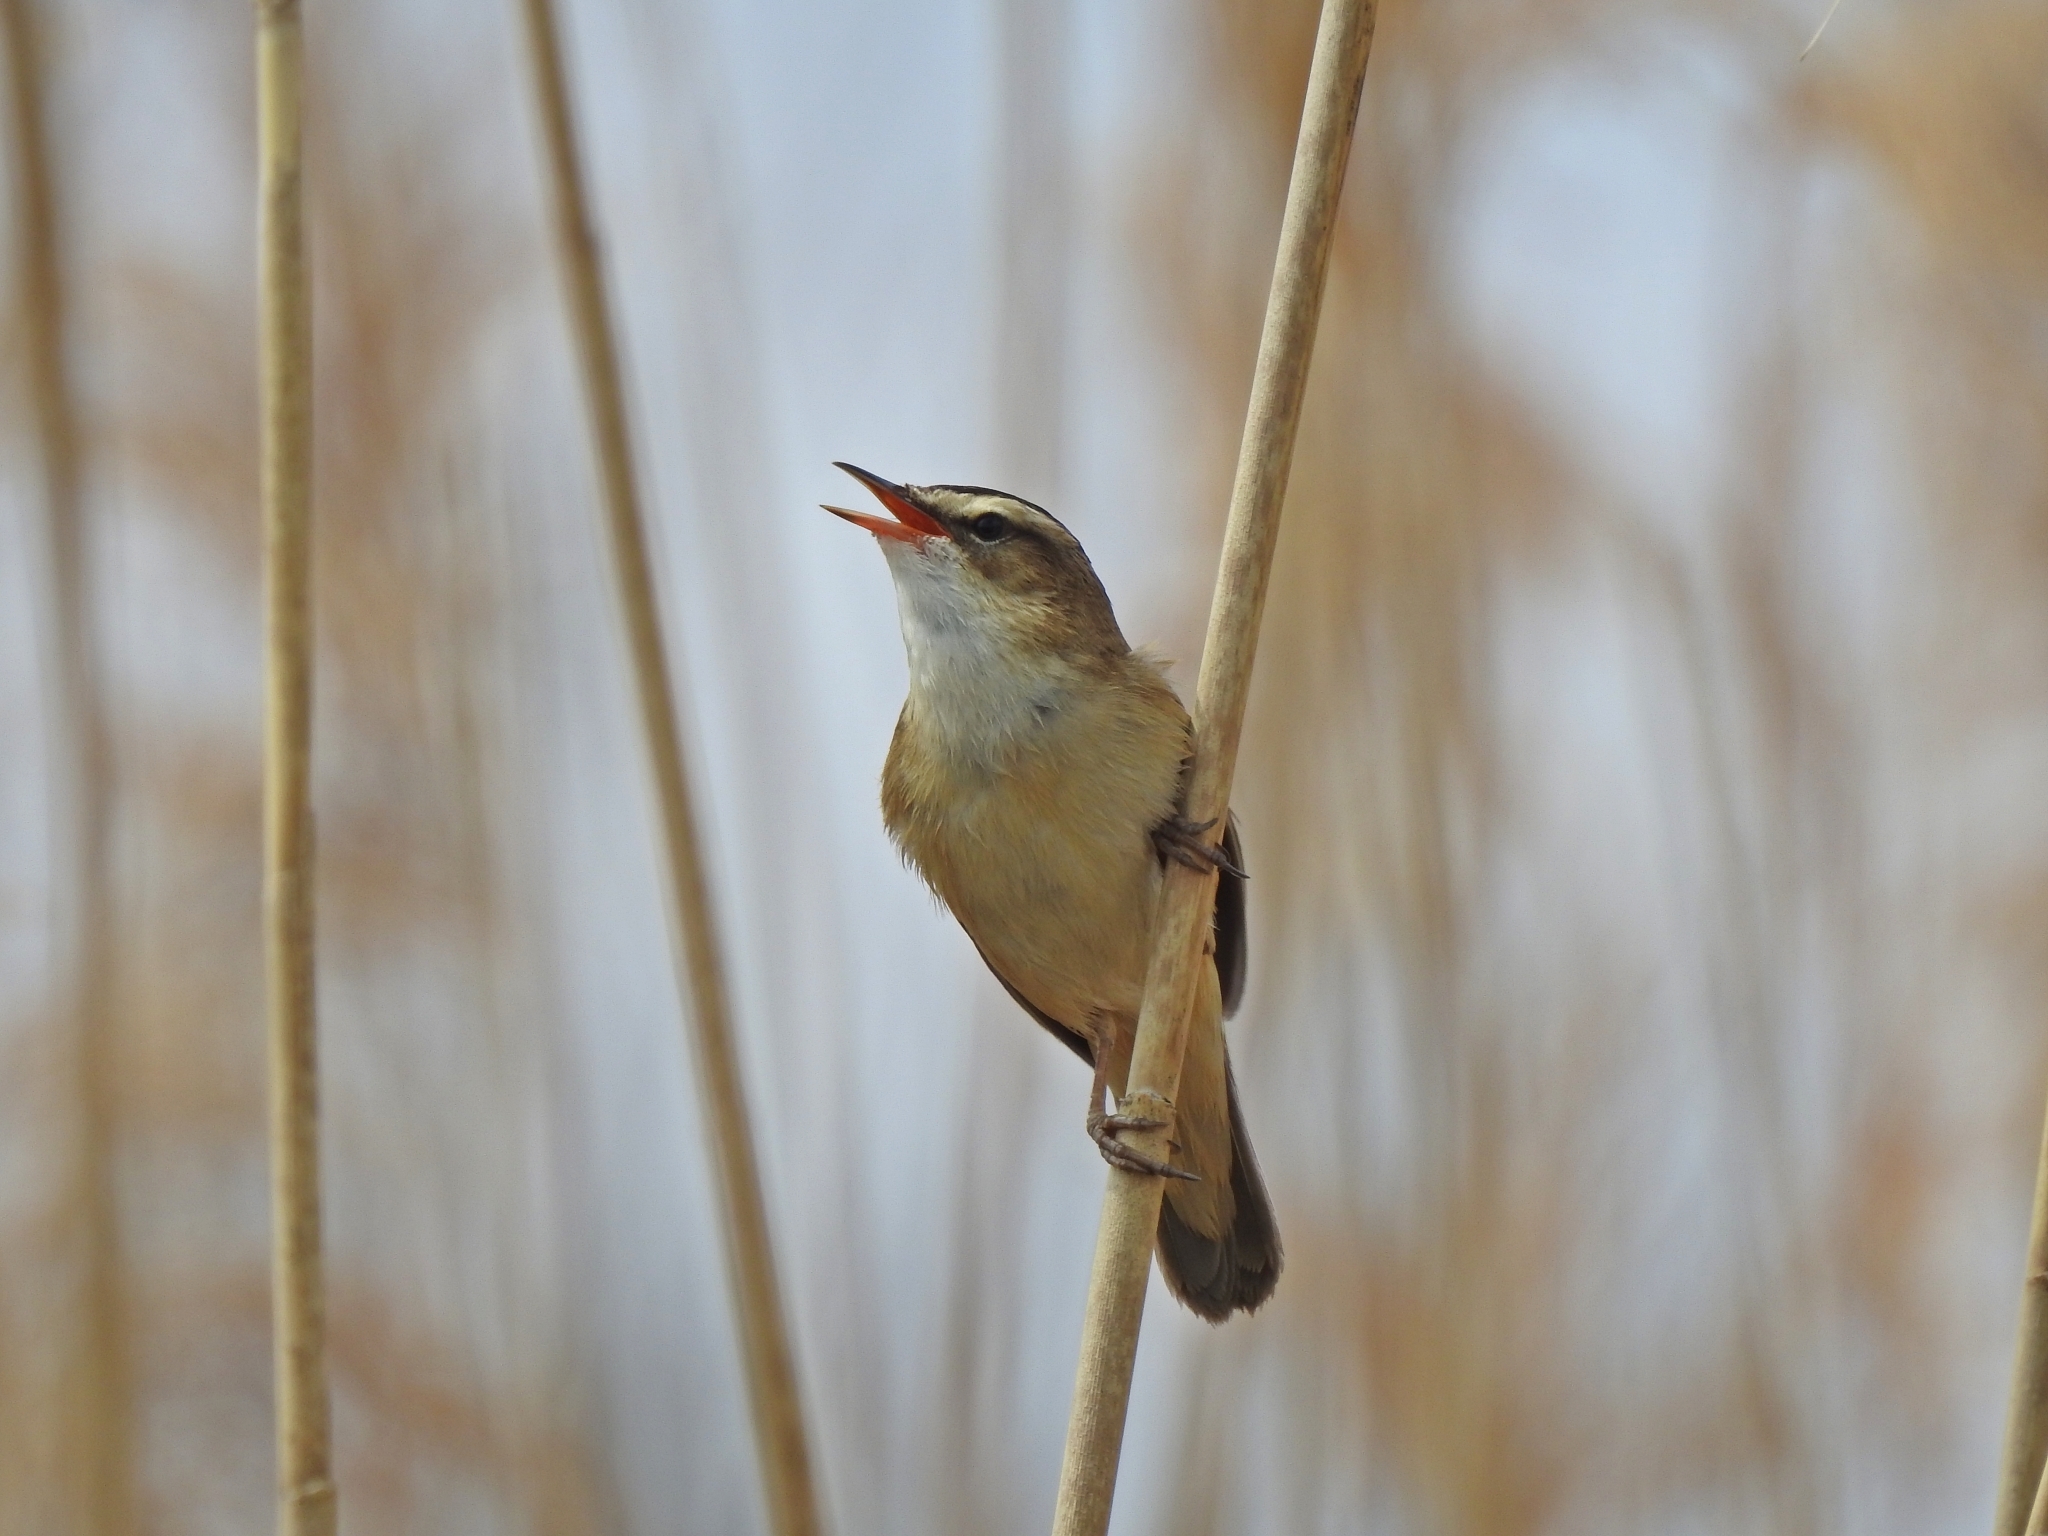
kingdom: Animalia
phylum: Chordata
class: Aves
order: Passeriformes
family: Acrocephalidae
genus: Acrocephalus
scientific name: Acrocephalus schoenobaenus
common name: Sedge warbler
